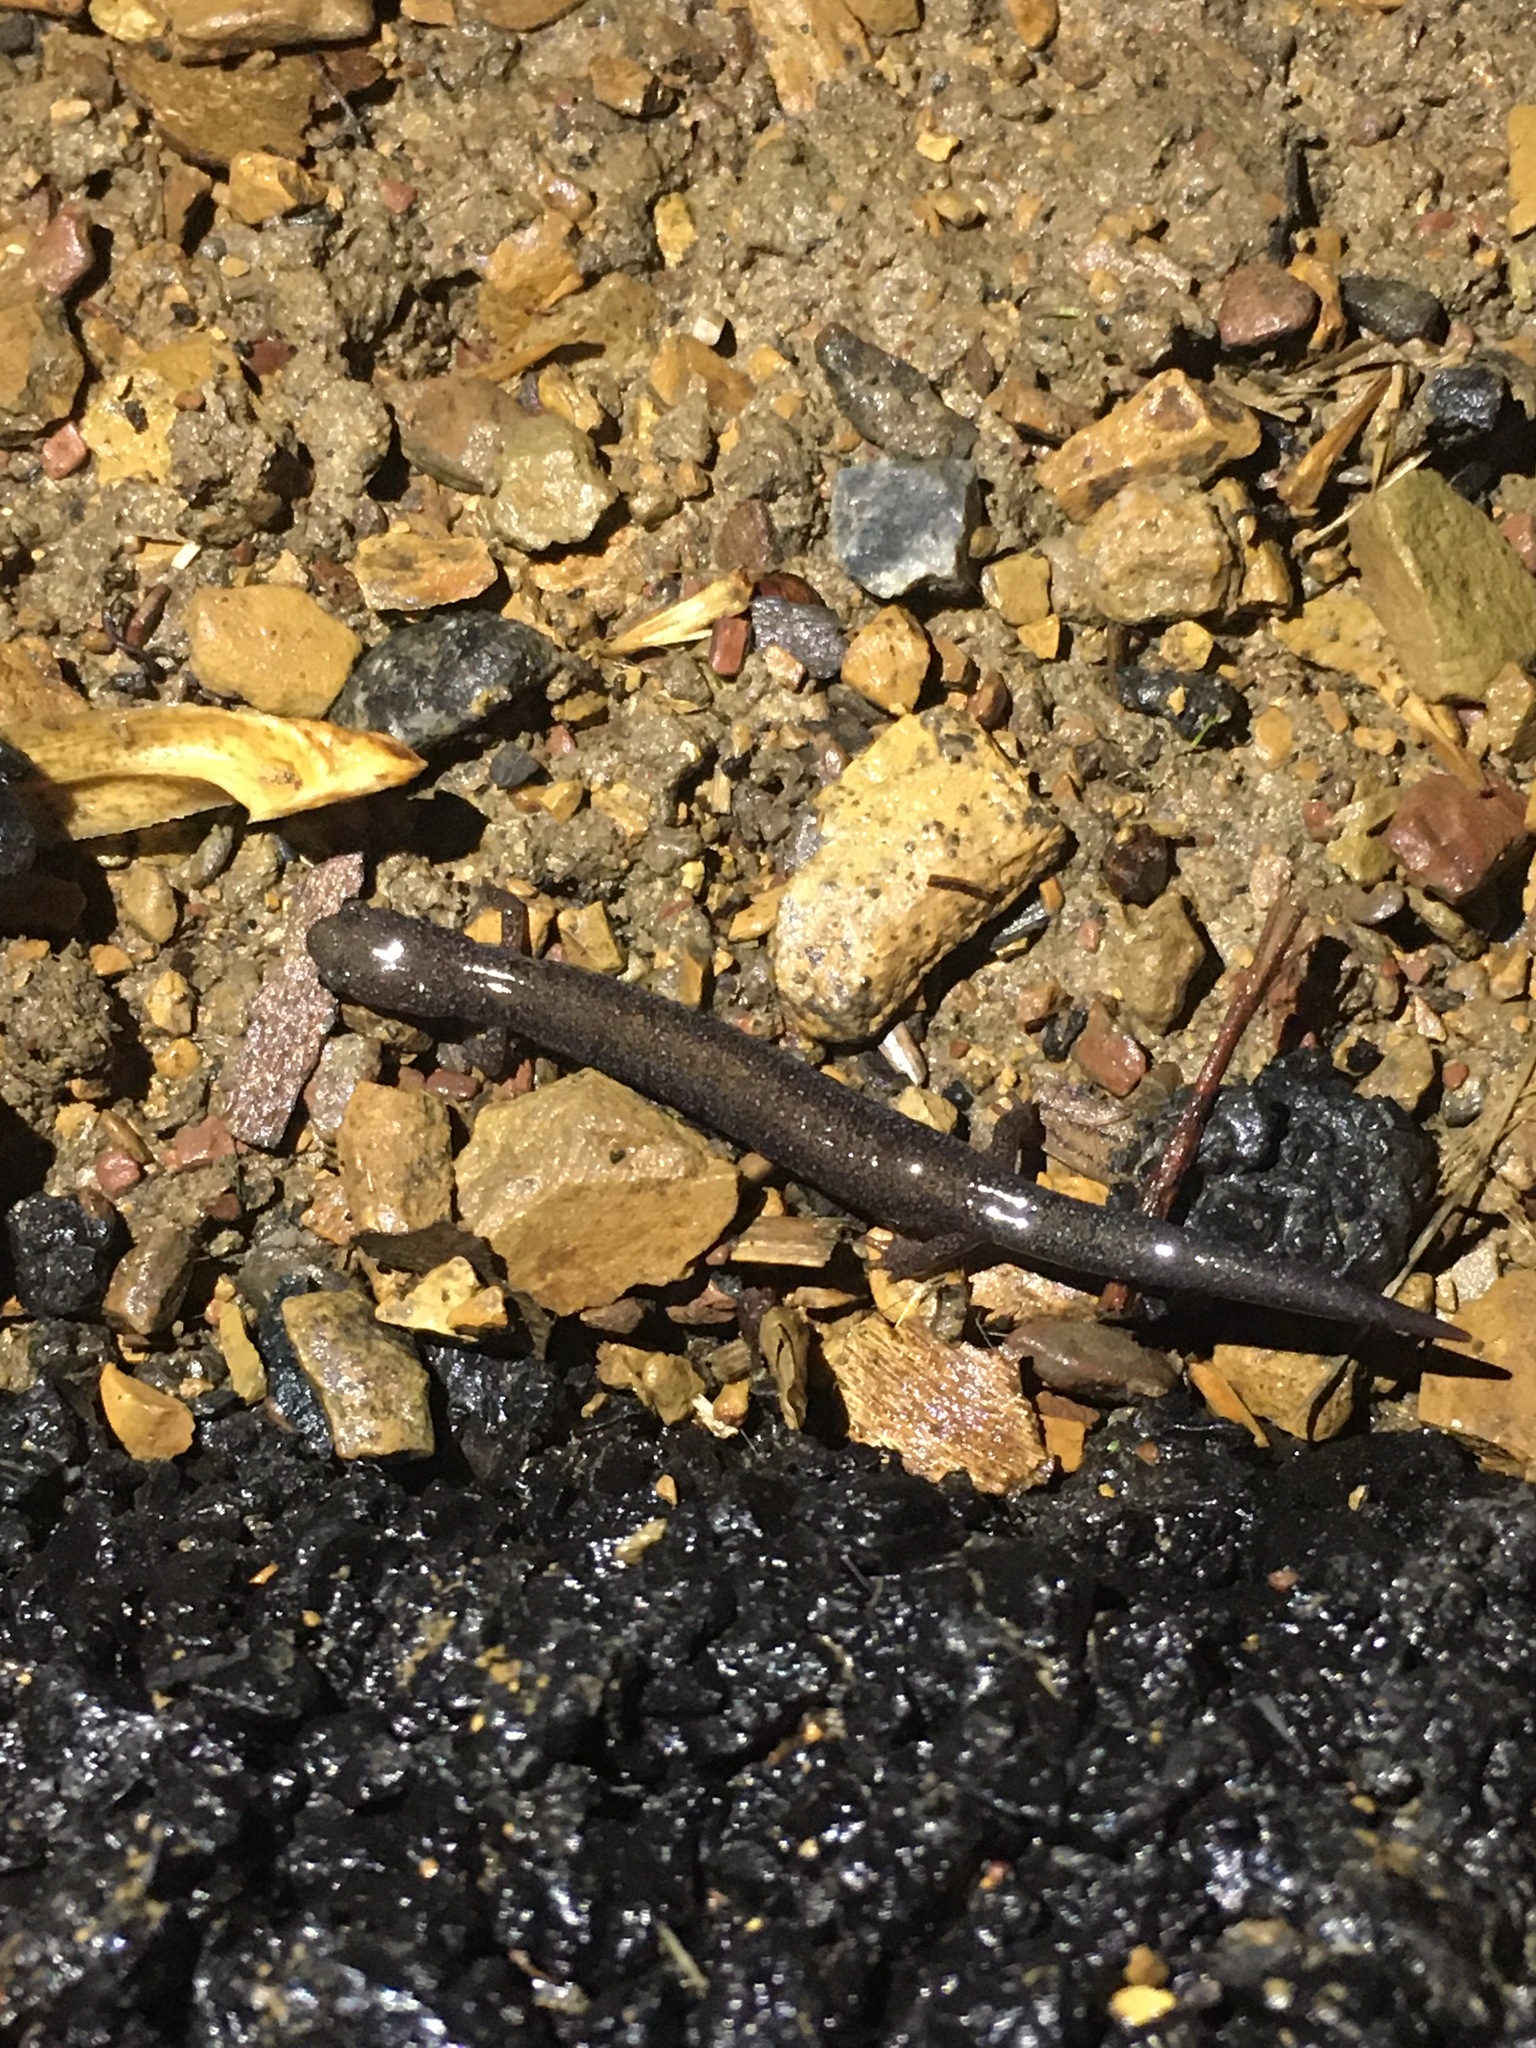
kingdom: Animalia
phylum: Chordata
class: Amphibia
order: Caudata
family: Plethodontidae
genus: Plethodon
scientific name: Plethodon cinereus
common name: Redback salamander
